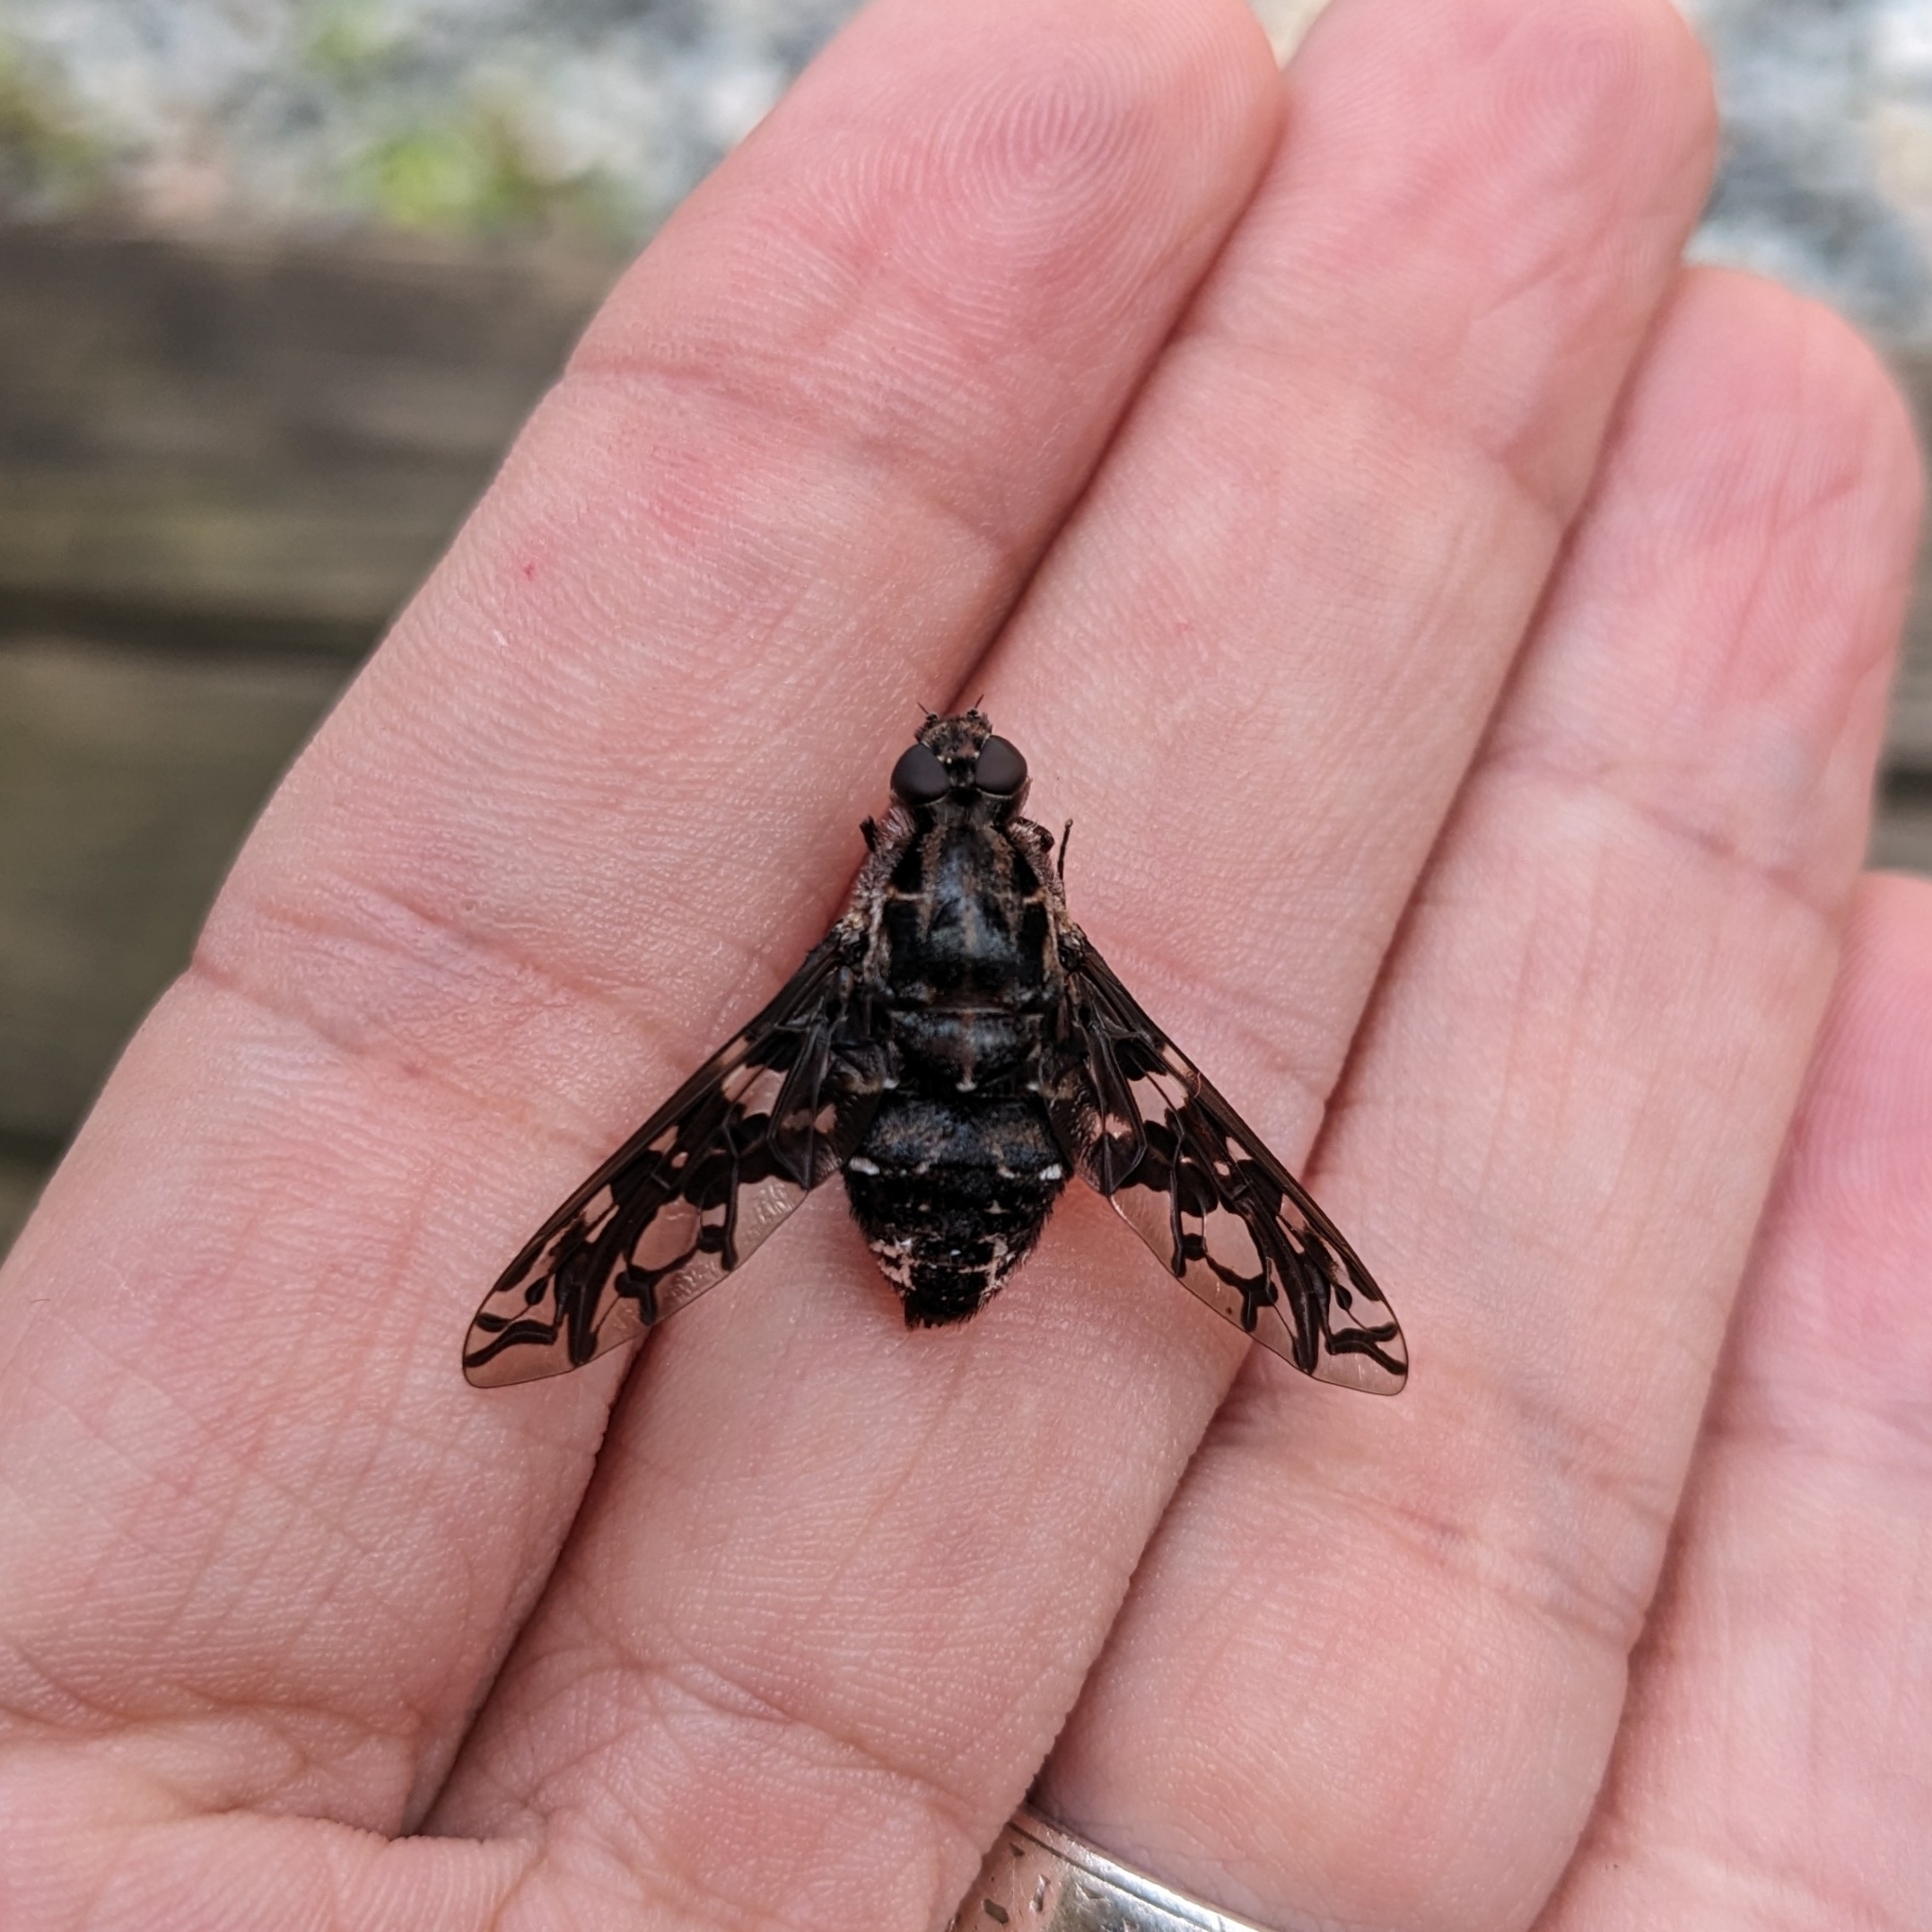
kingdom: Animalia
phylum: Arthropoda
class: Insecta
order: Diptera
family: Bombyliidae
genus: Xenox
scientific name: Xenox tigrinus
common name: Tiger bee fly
